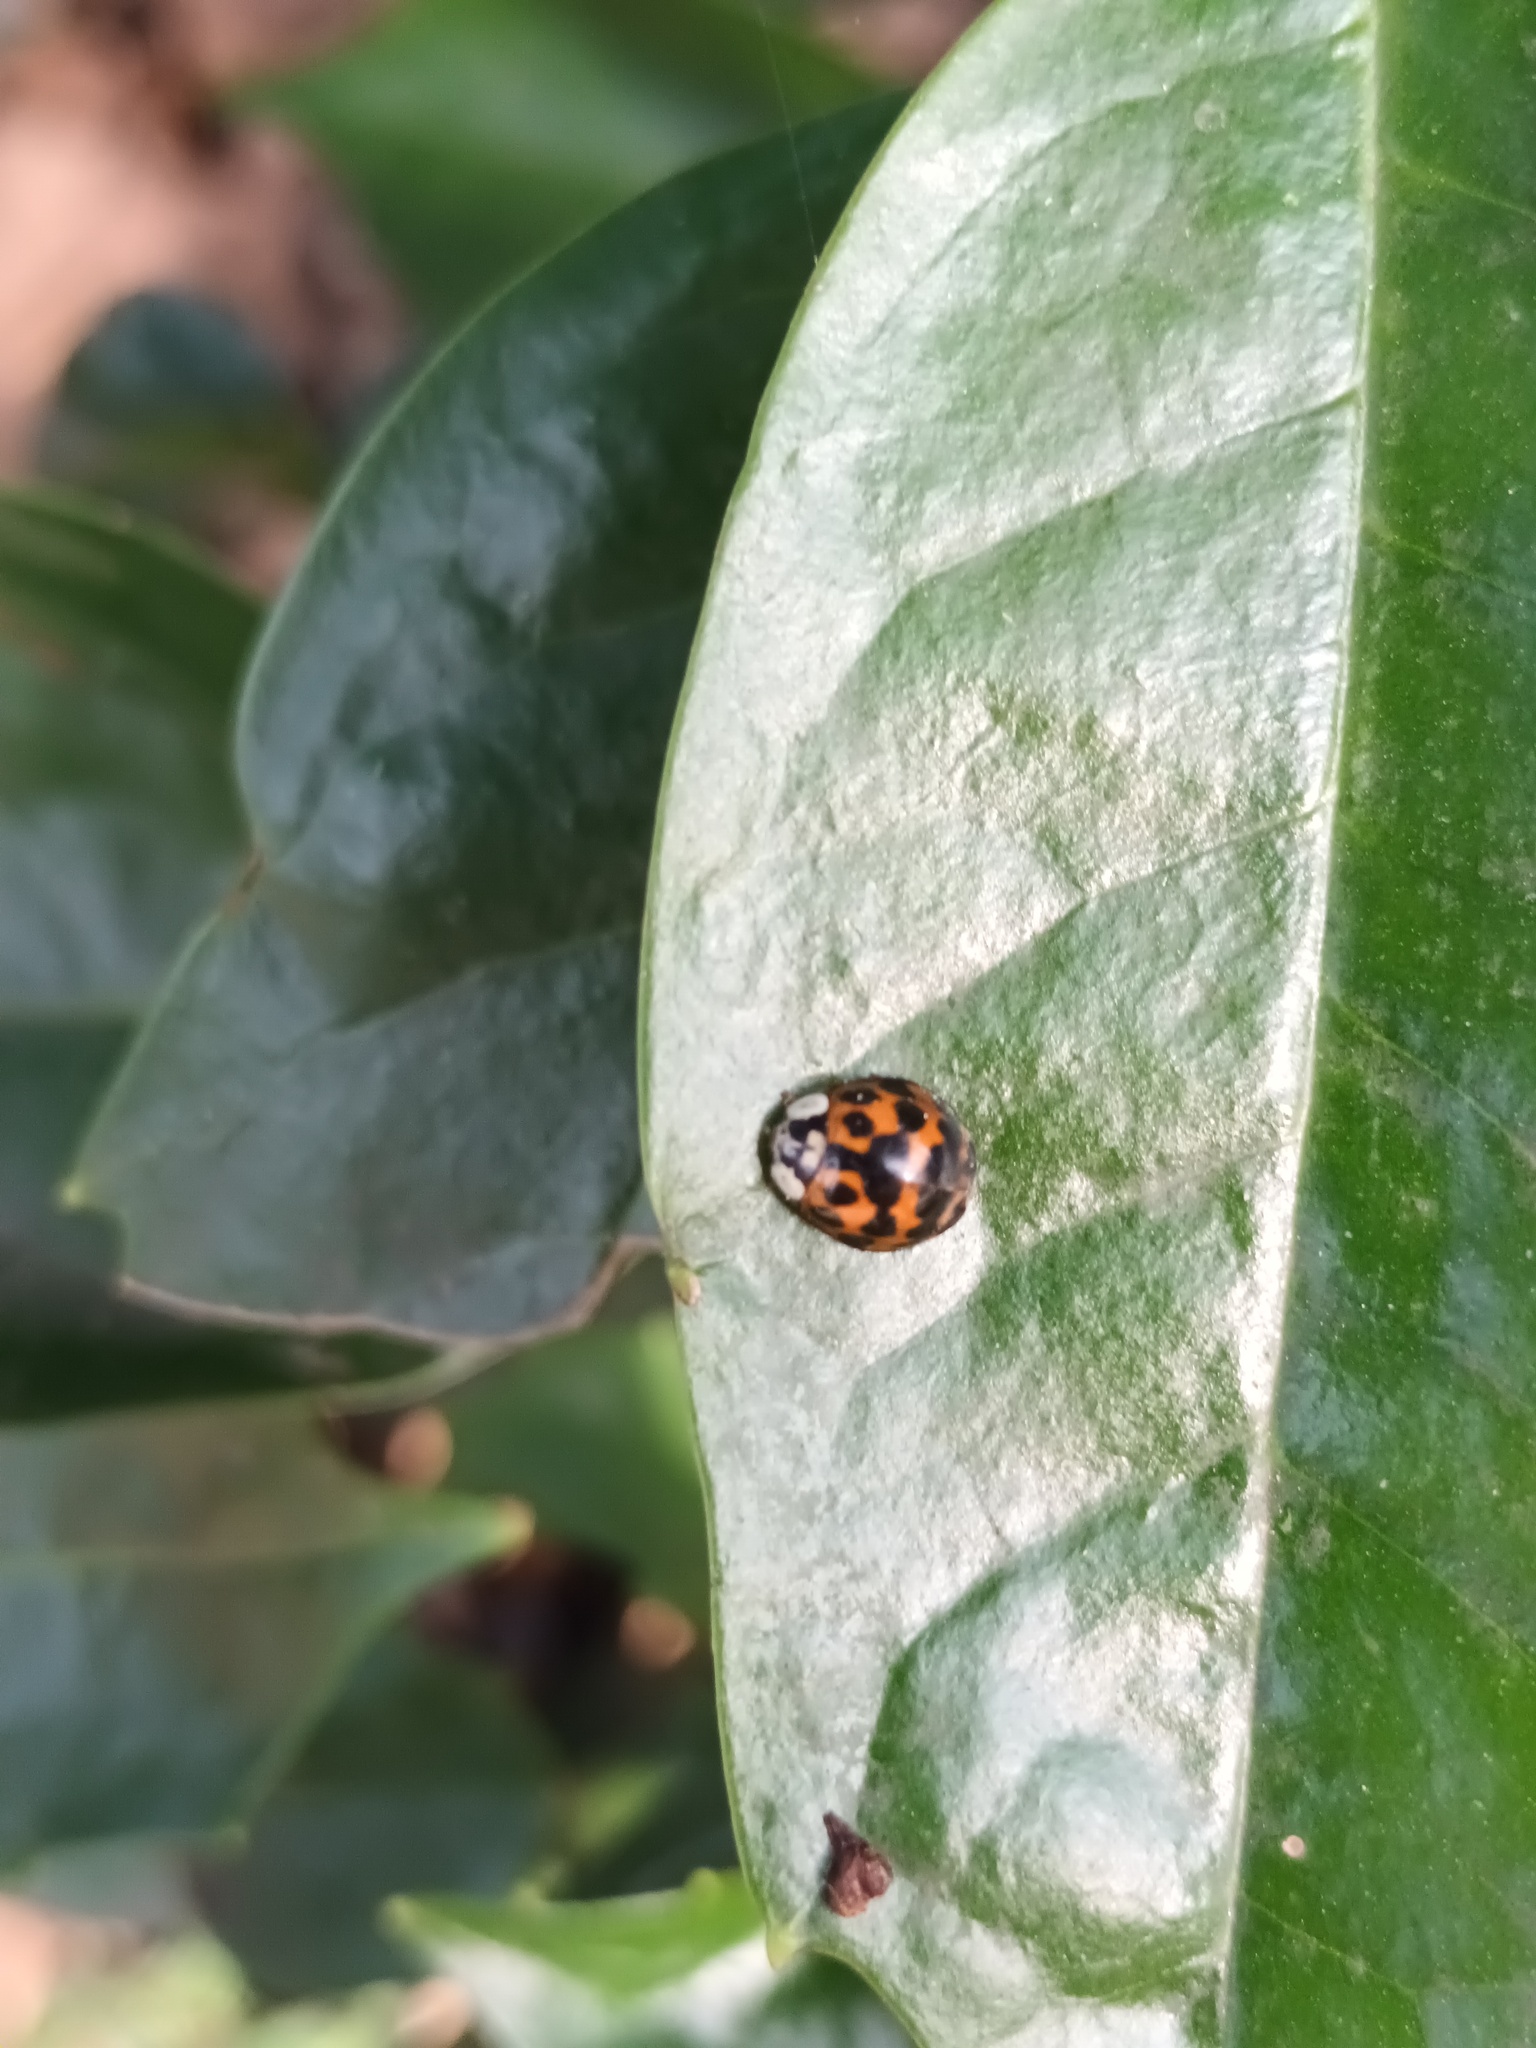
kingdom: Animalia
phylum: Arthropoda
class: Insecta
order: Coleoptera
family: Coccinellidae
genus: Harmonia
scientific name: Harmonia axyridis
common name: Harlequin ladybird
